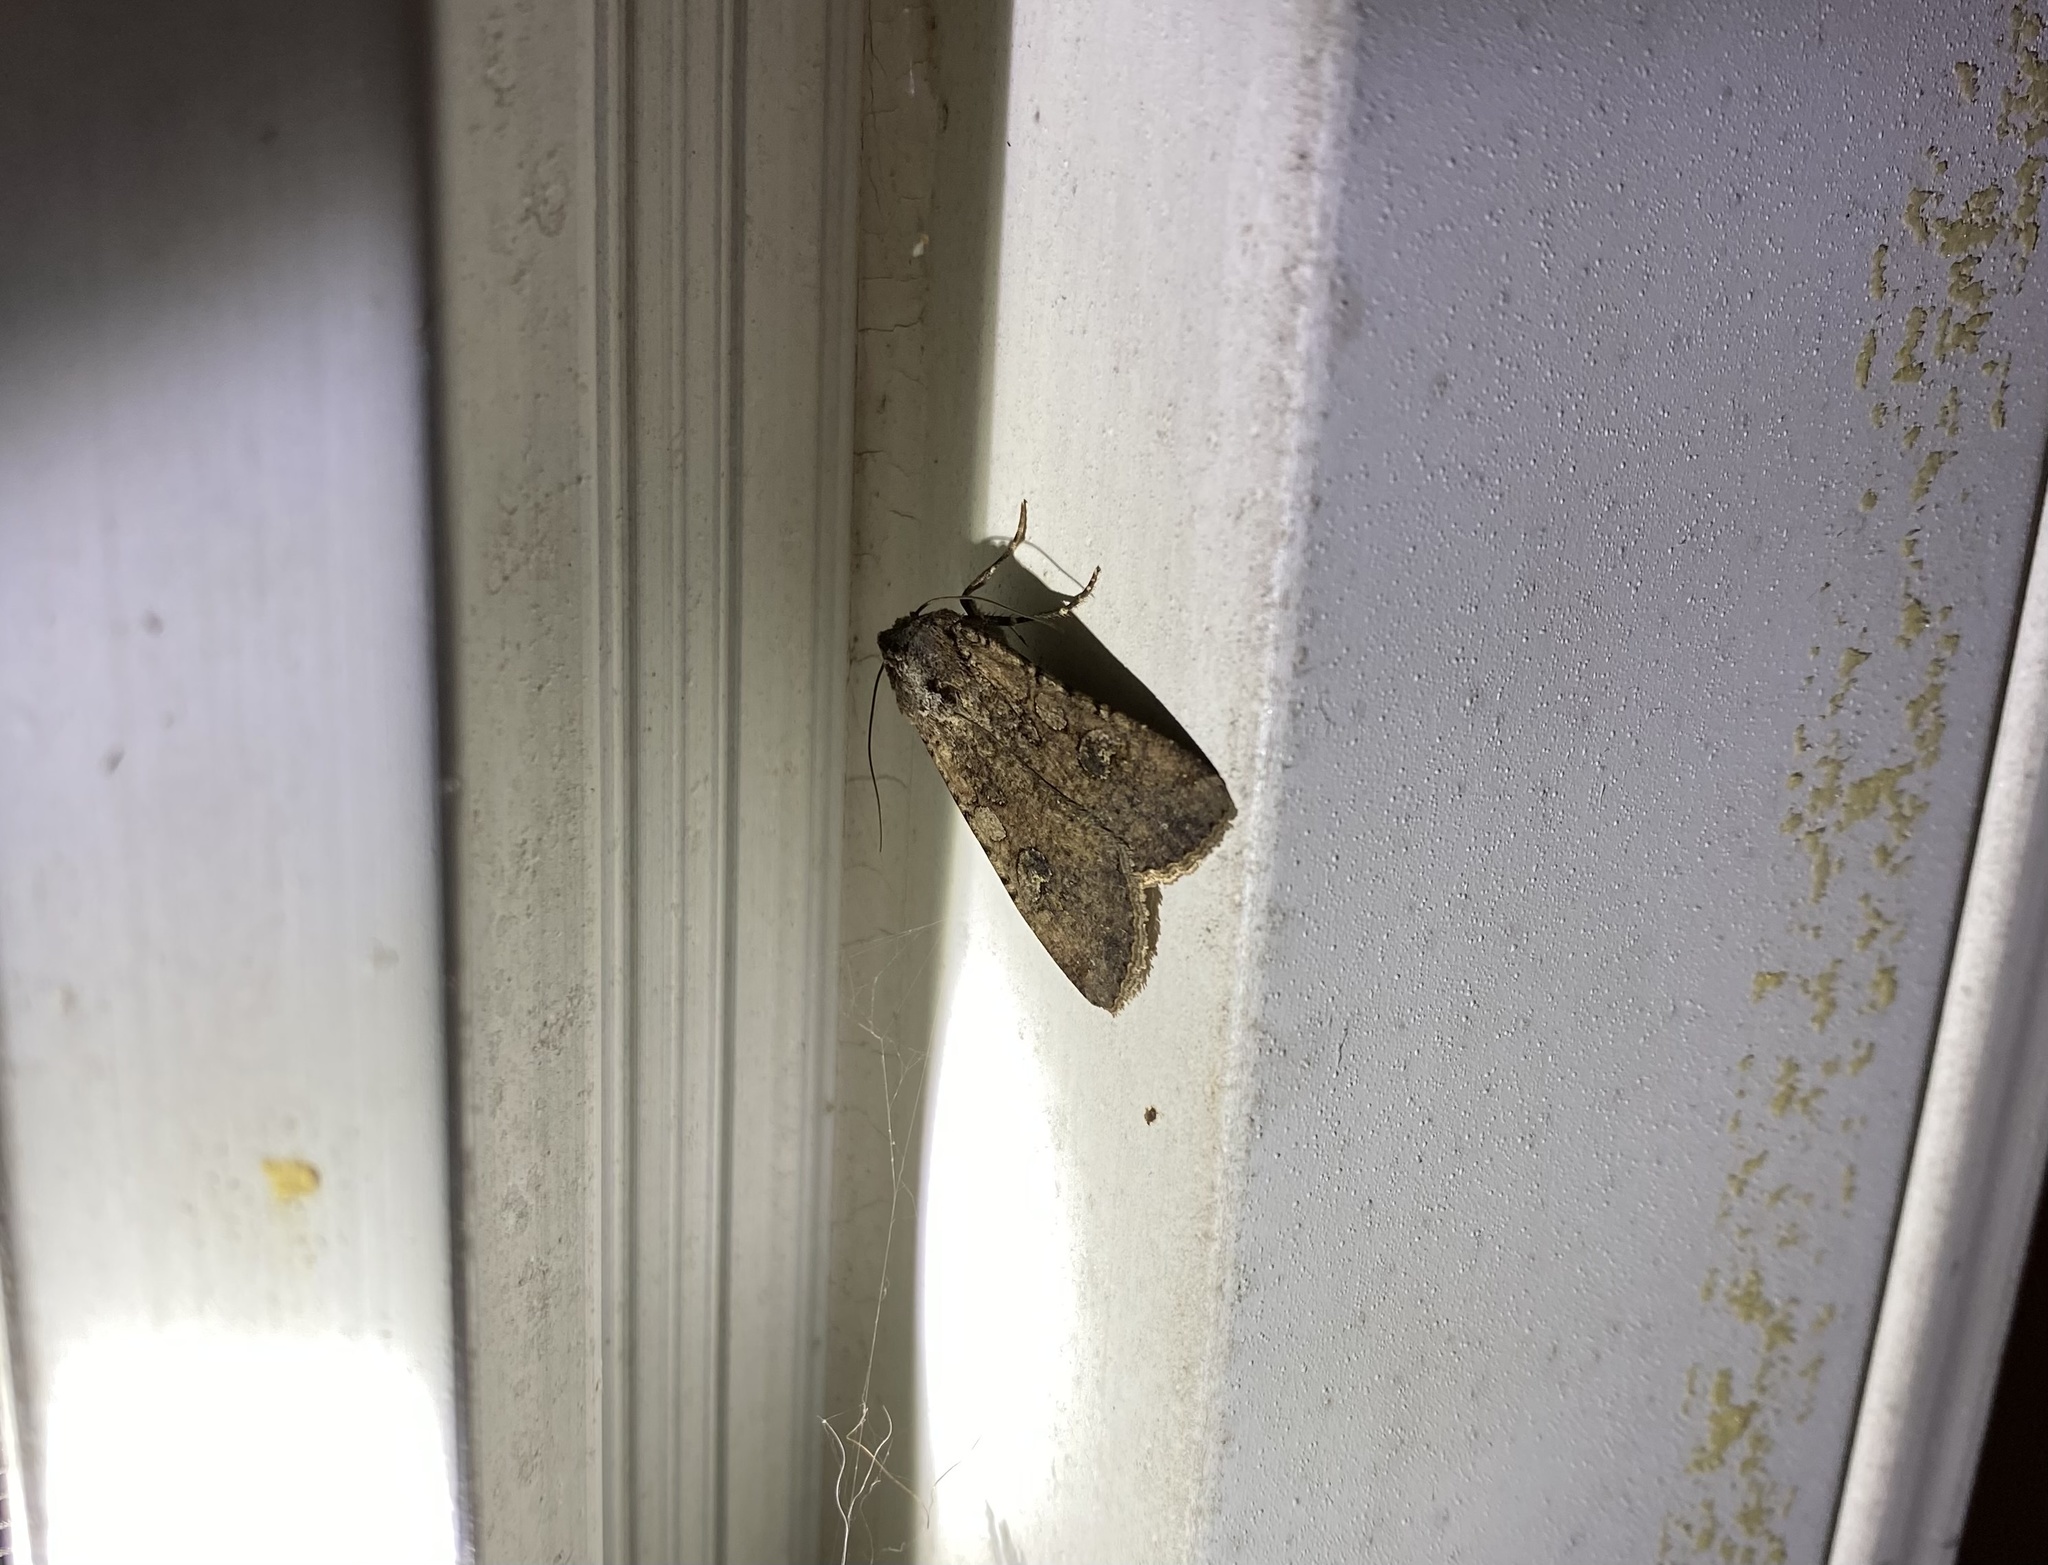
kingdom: Animalia
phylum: Arthropoda
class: Insecta
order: Lepidoptera
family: Noctuidae
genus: Peridroma
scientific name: Peridroma saucia
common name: Pearly underwing
